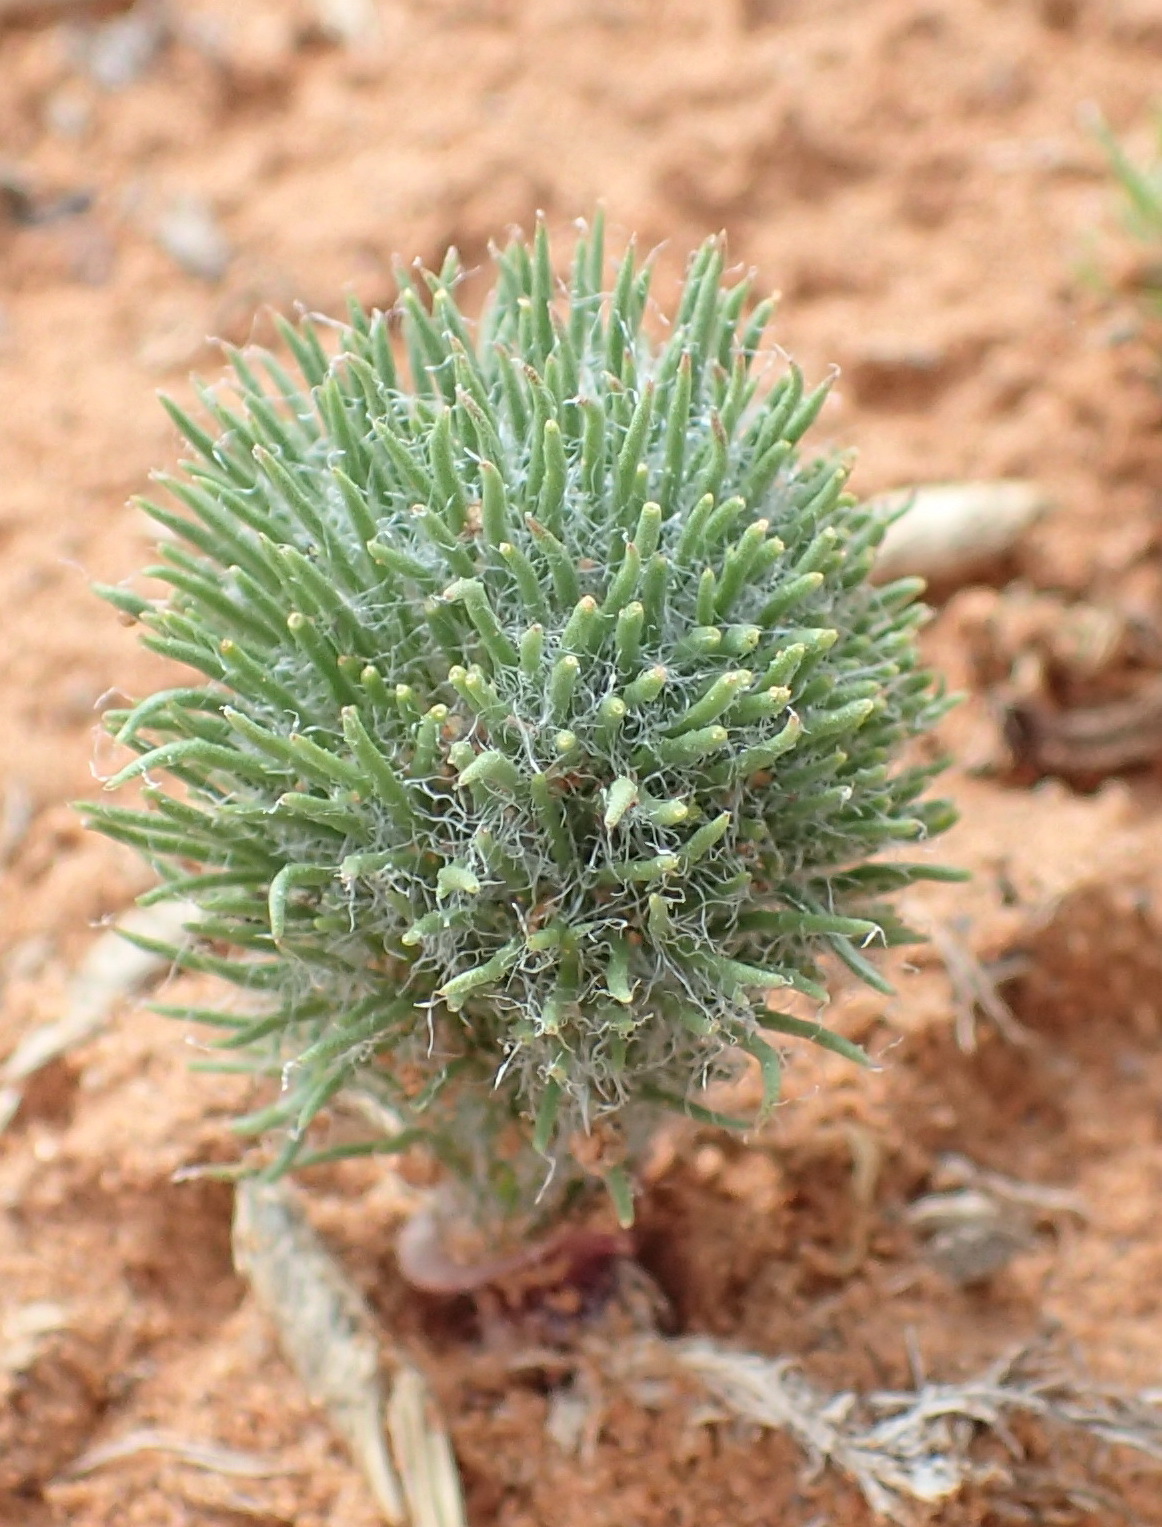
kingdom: Plantae
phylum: Tracheophyta
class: Liliopsida
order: Asparagales
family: Asparagaceae
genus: Eriospermum
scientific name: Eriospermum paradoxum
